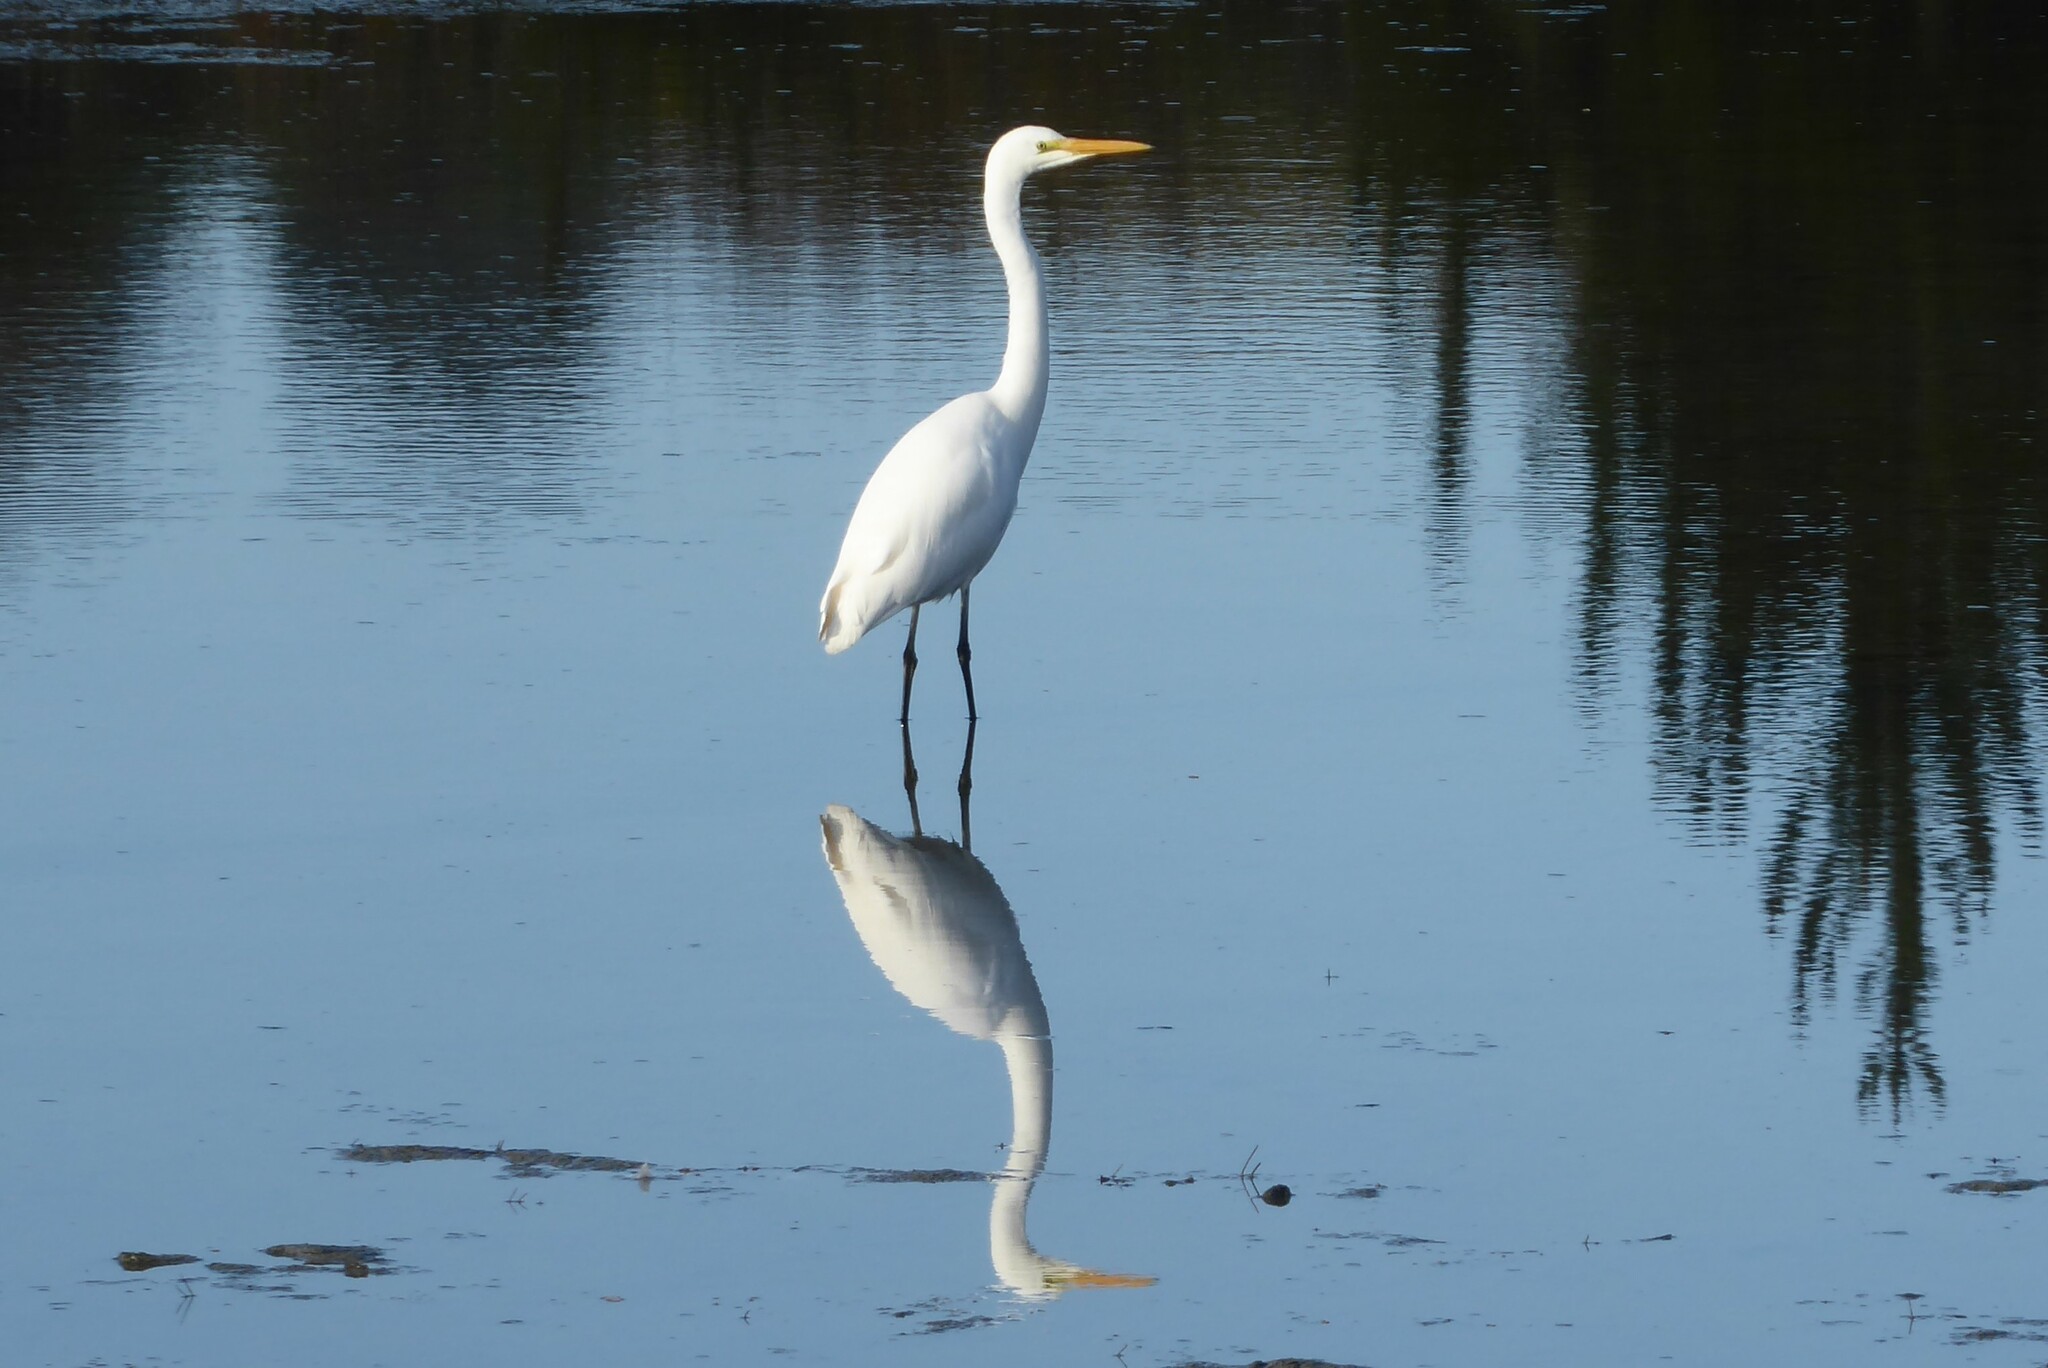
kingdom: Animalia
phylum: Chordata
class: Aves
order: Pelecaniformes
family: Ardeidae
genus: Ardea
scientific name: Ardea modesta
